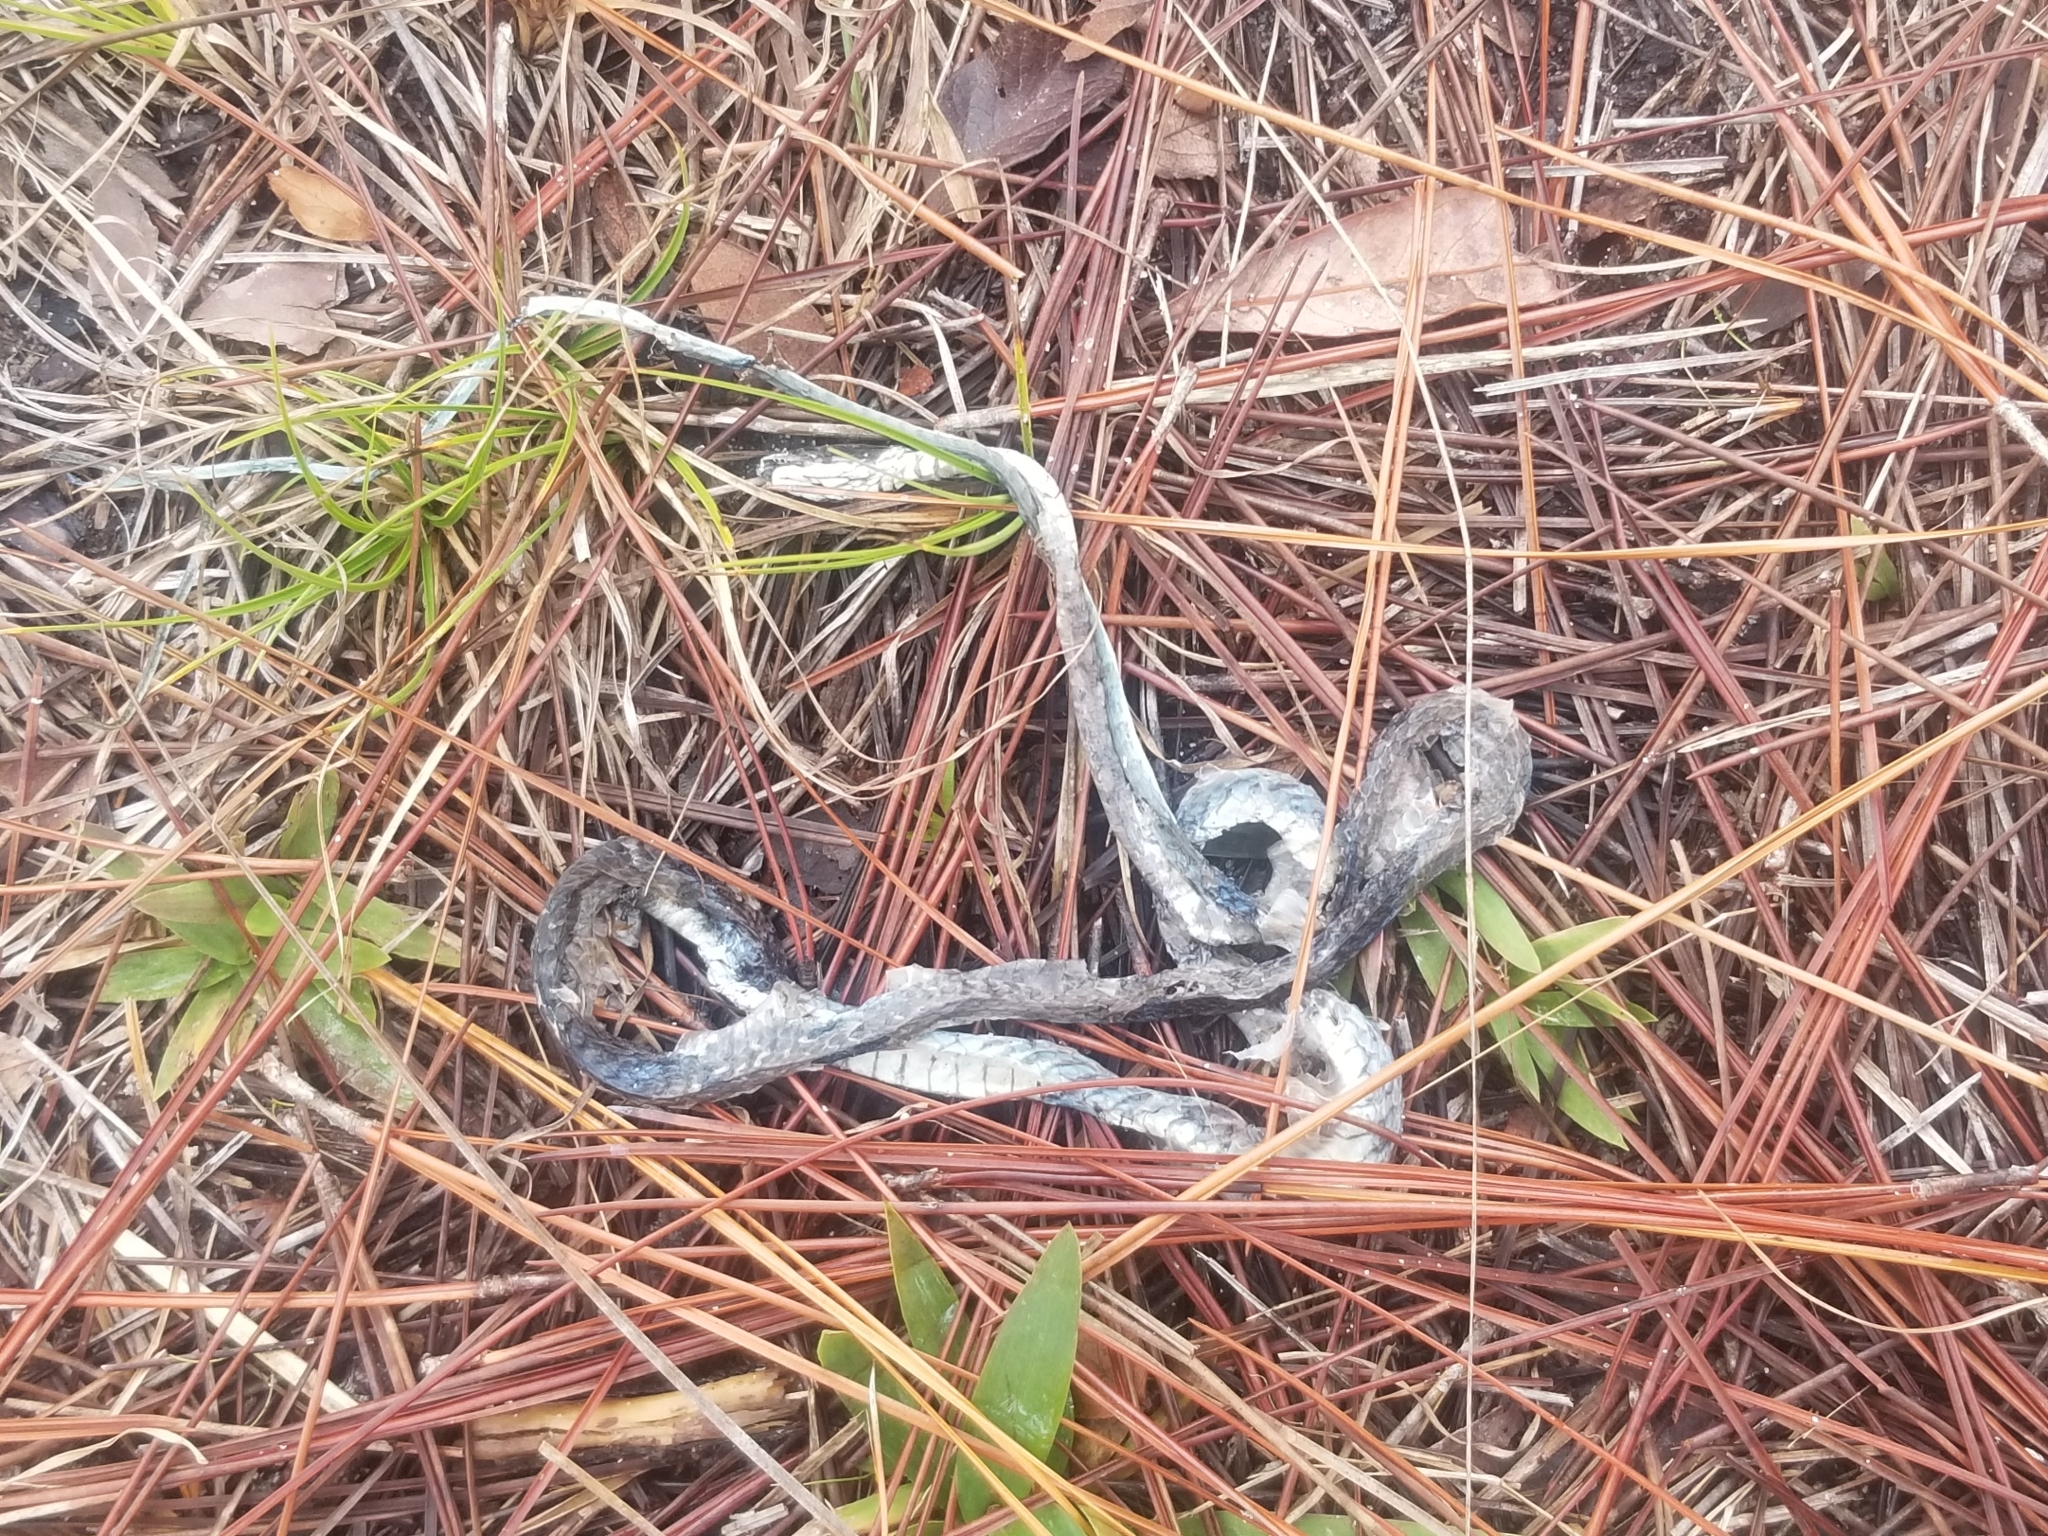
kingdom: Animalia
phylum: Chordata
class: Squamata
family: Colubridae
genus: Pantherophis
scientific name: Pantherophis
